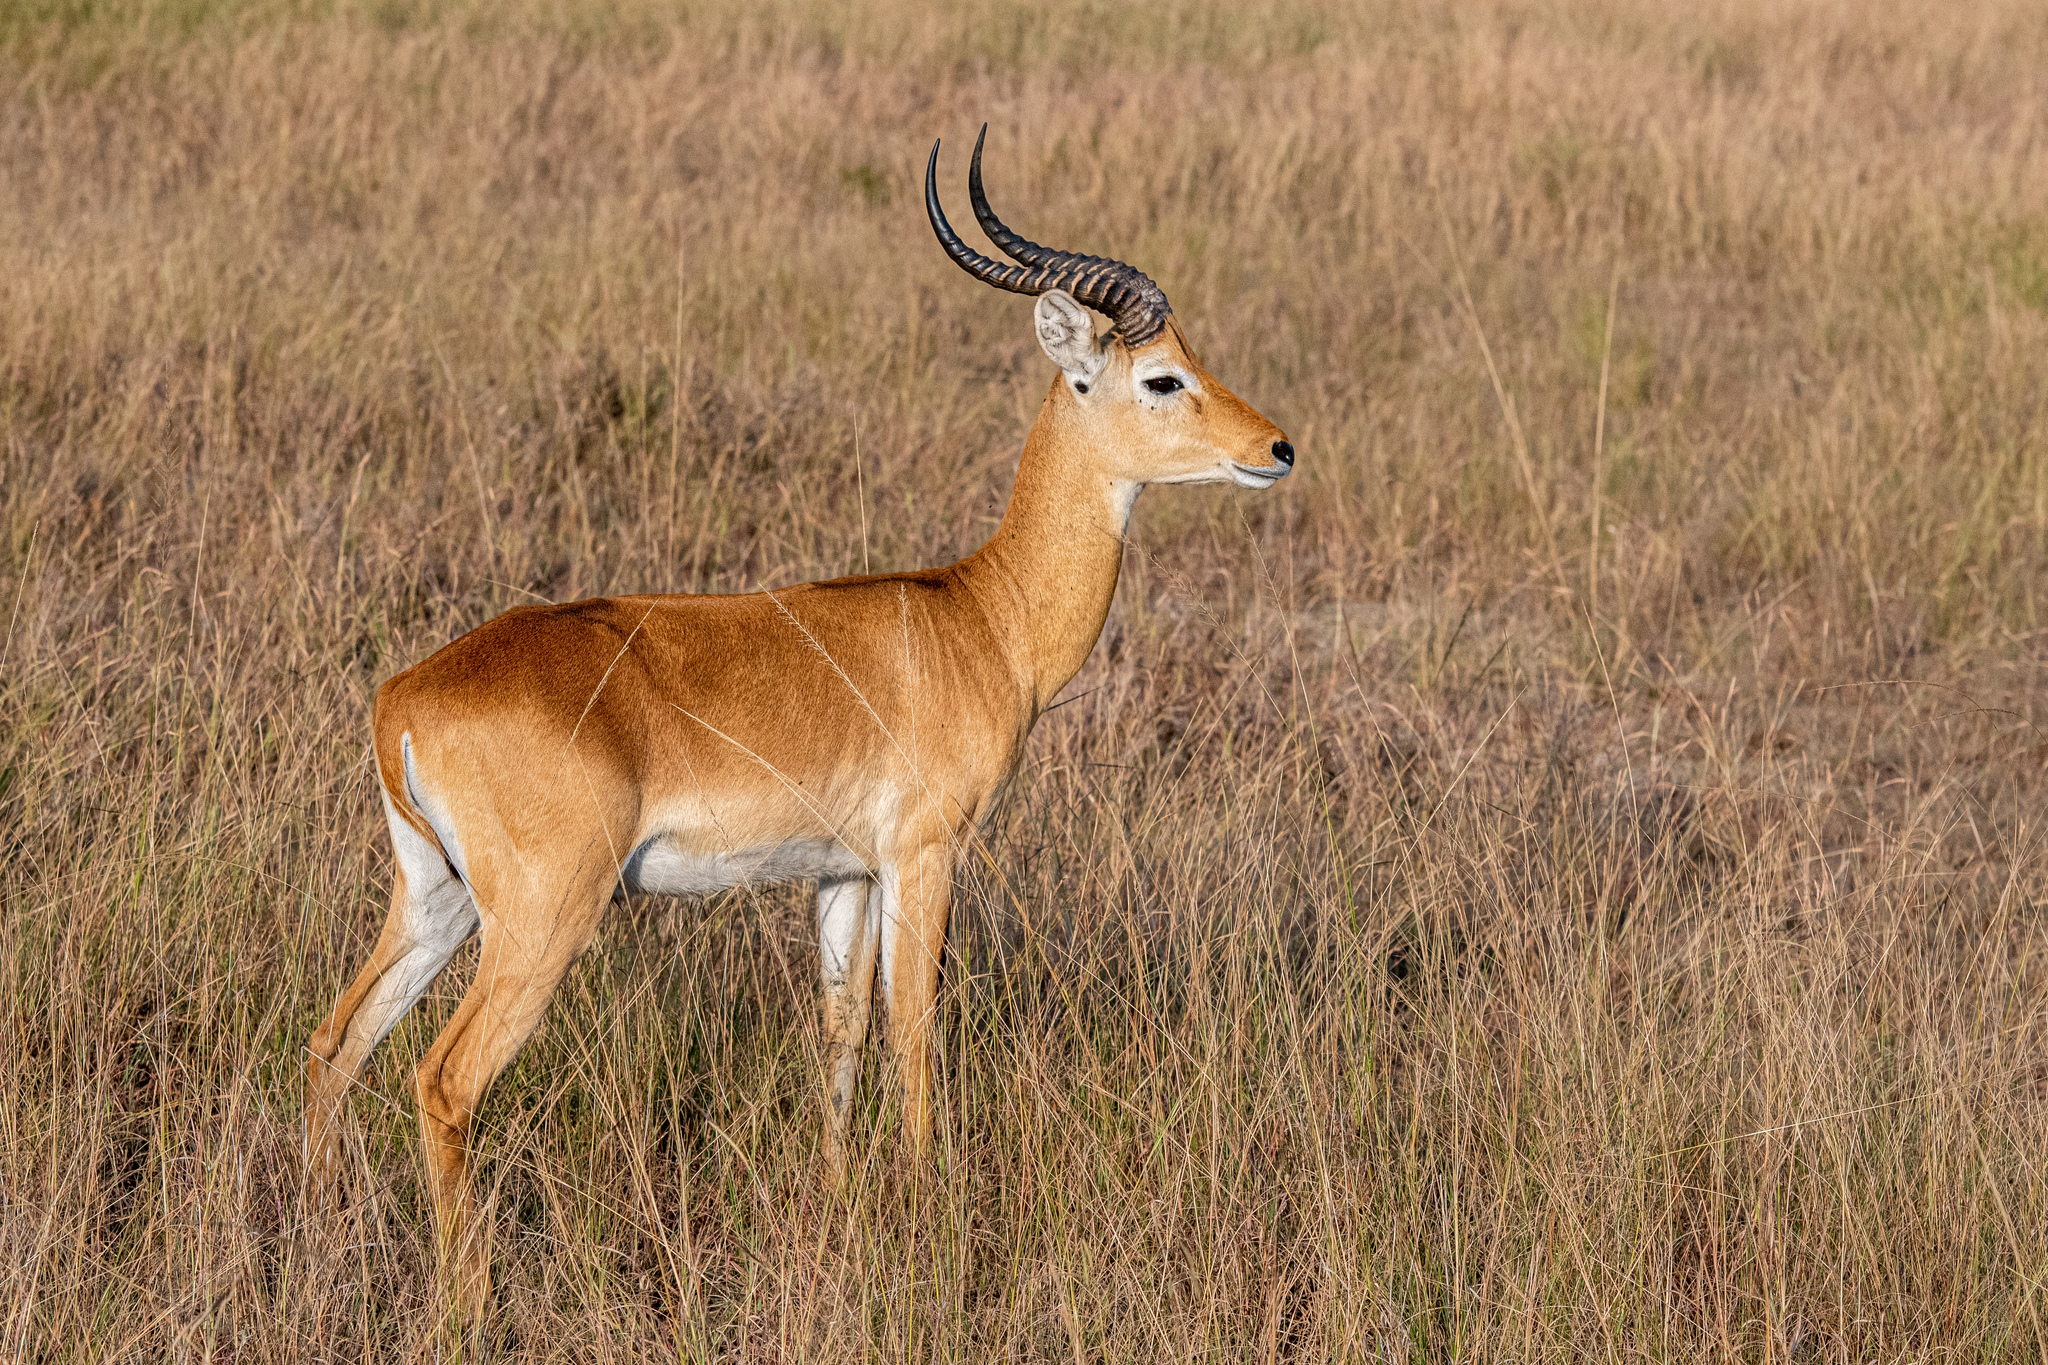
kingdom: Animalia
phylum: Chordata
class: Mammalia
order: Artiodactyla
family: Bovidae
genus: Kobus
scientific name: Kobus kob
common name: Kob
